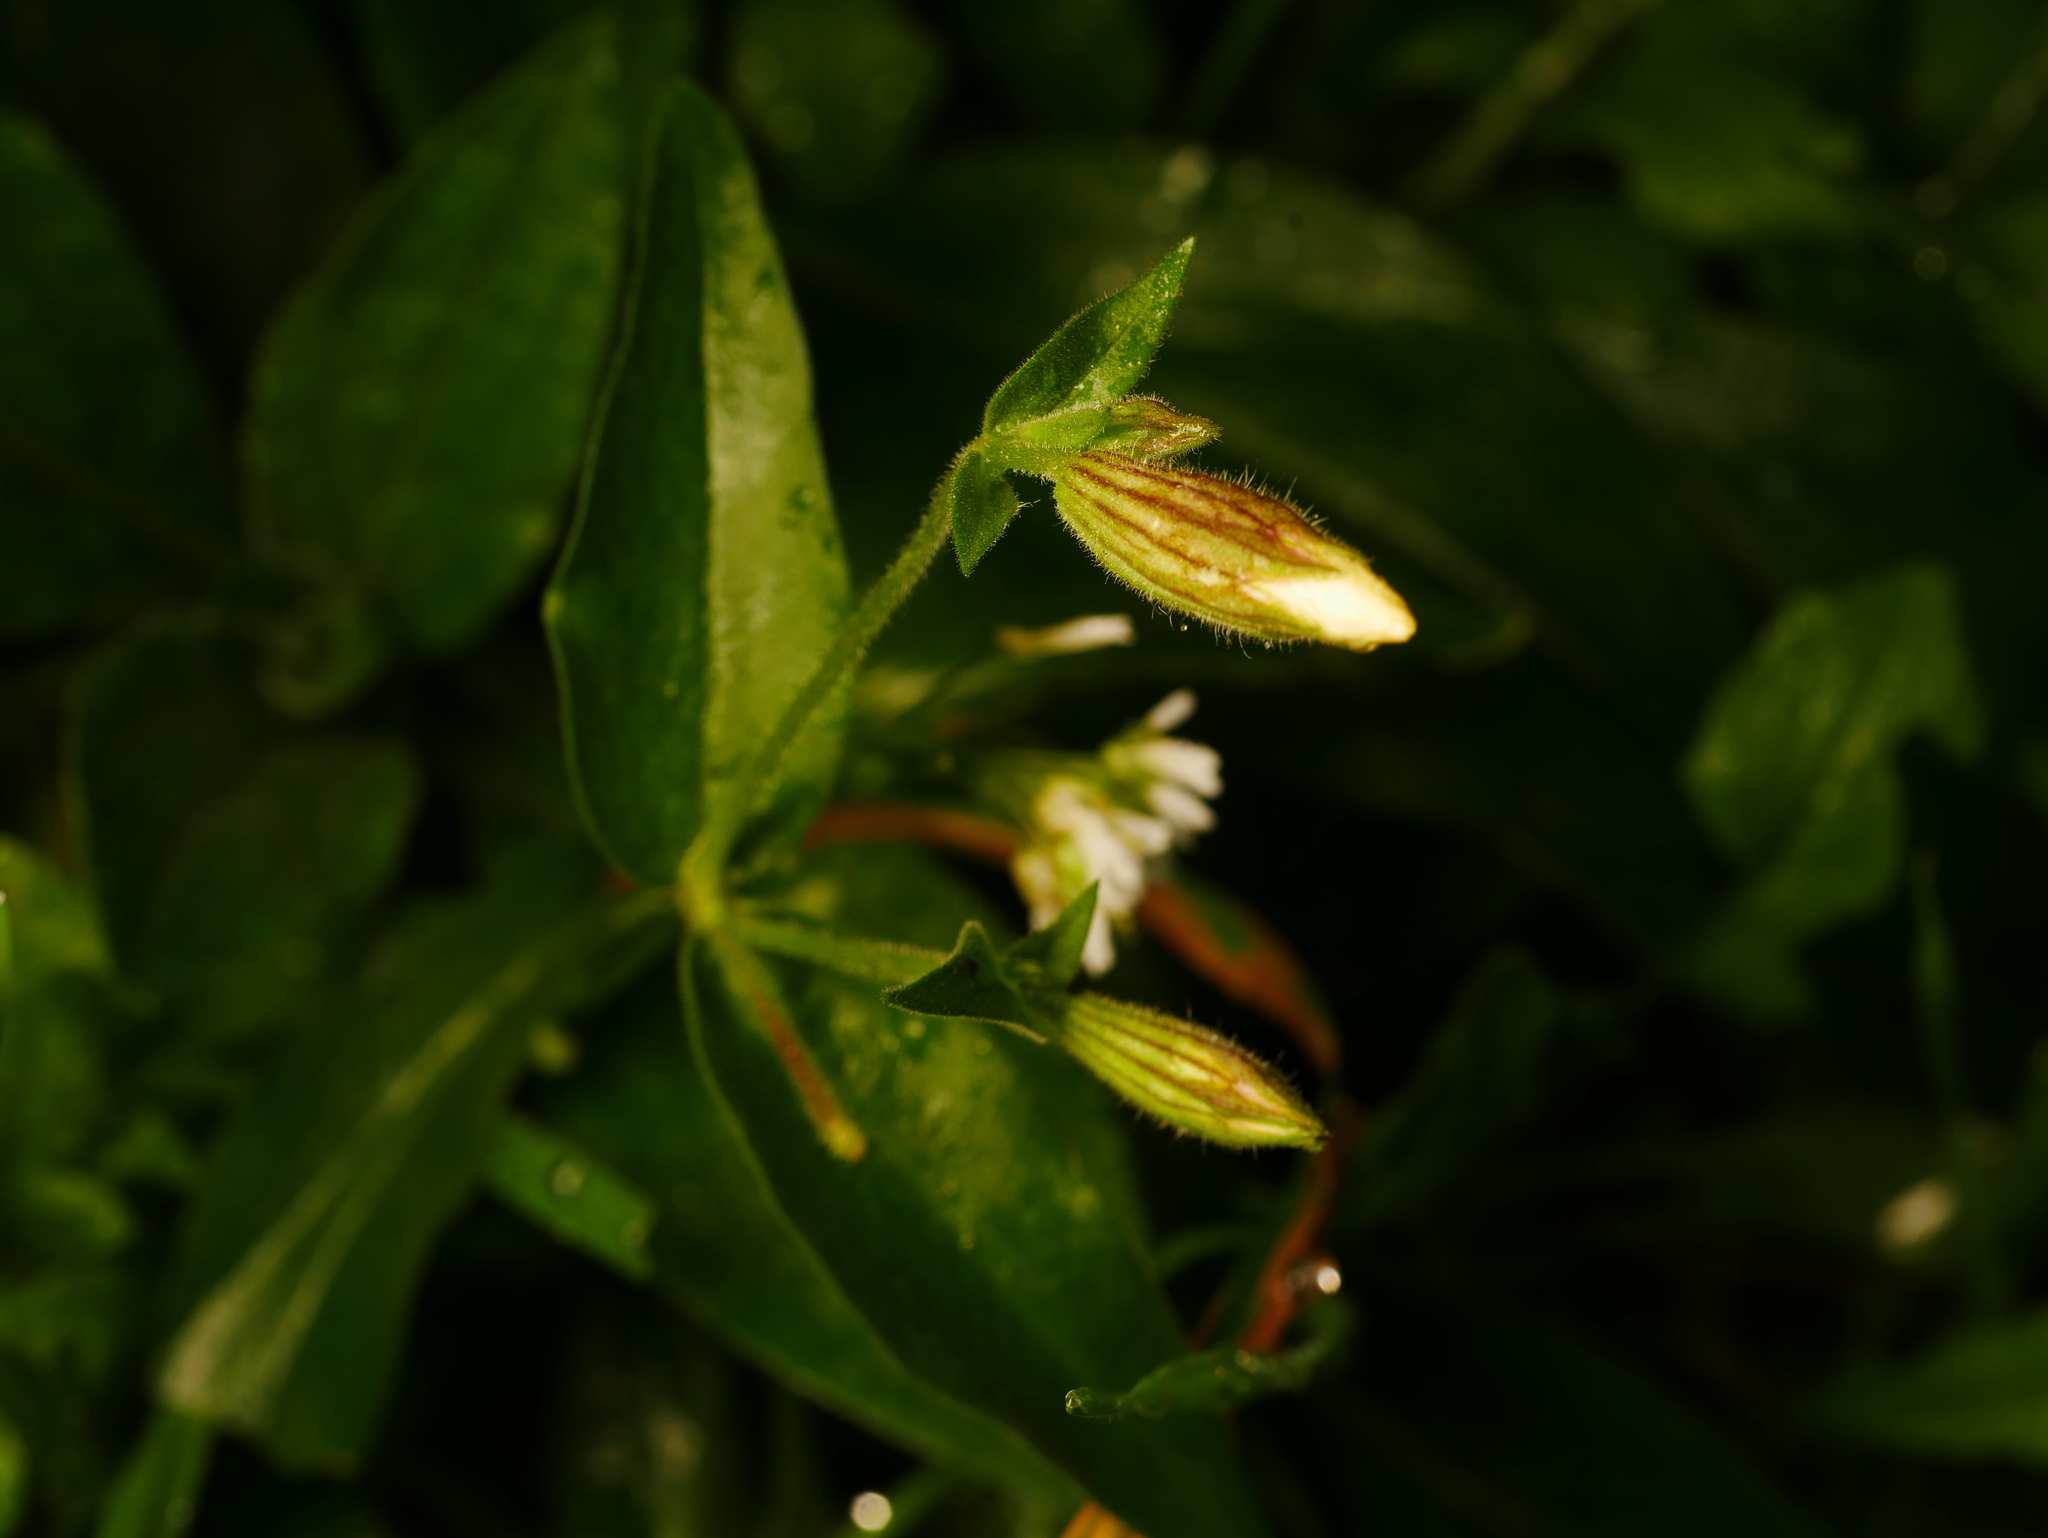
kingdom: Plantae
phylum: Tracheophyta
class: Magnoliopsida
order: Caryophyllales
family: Caryophyllaceae
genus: Silene
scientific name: Silene latifolia
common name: White campion
